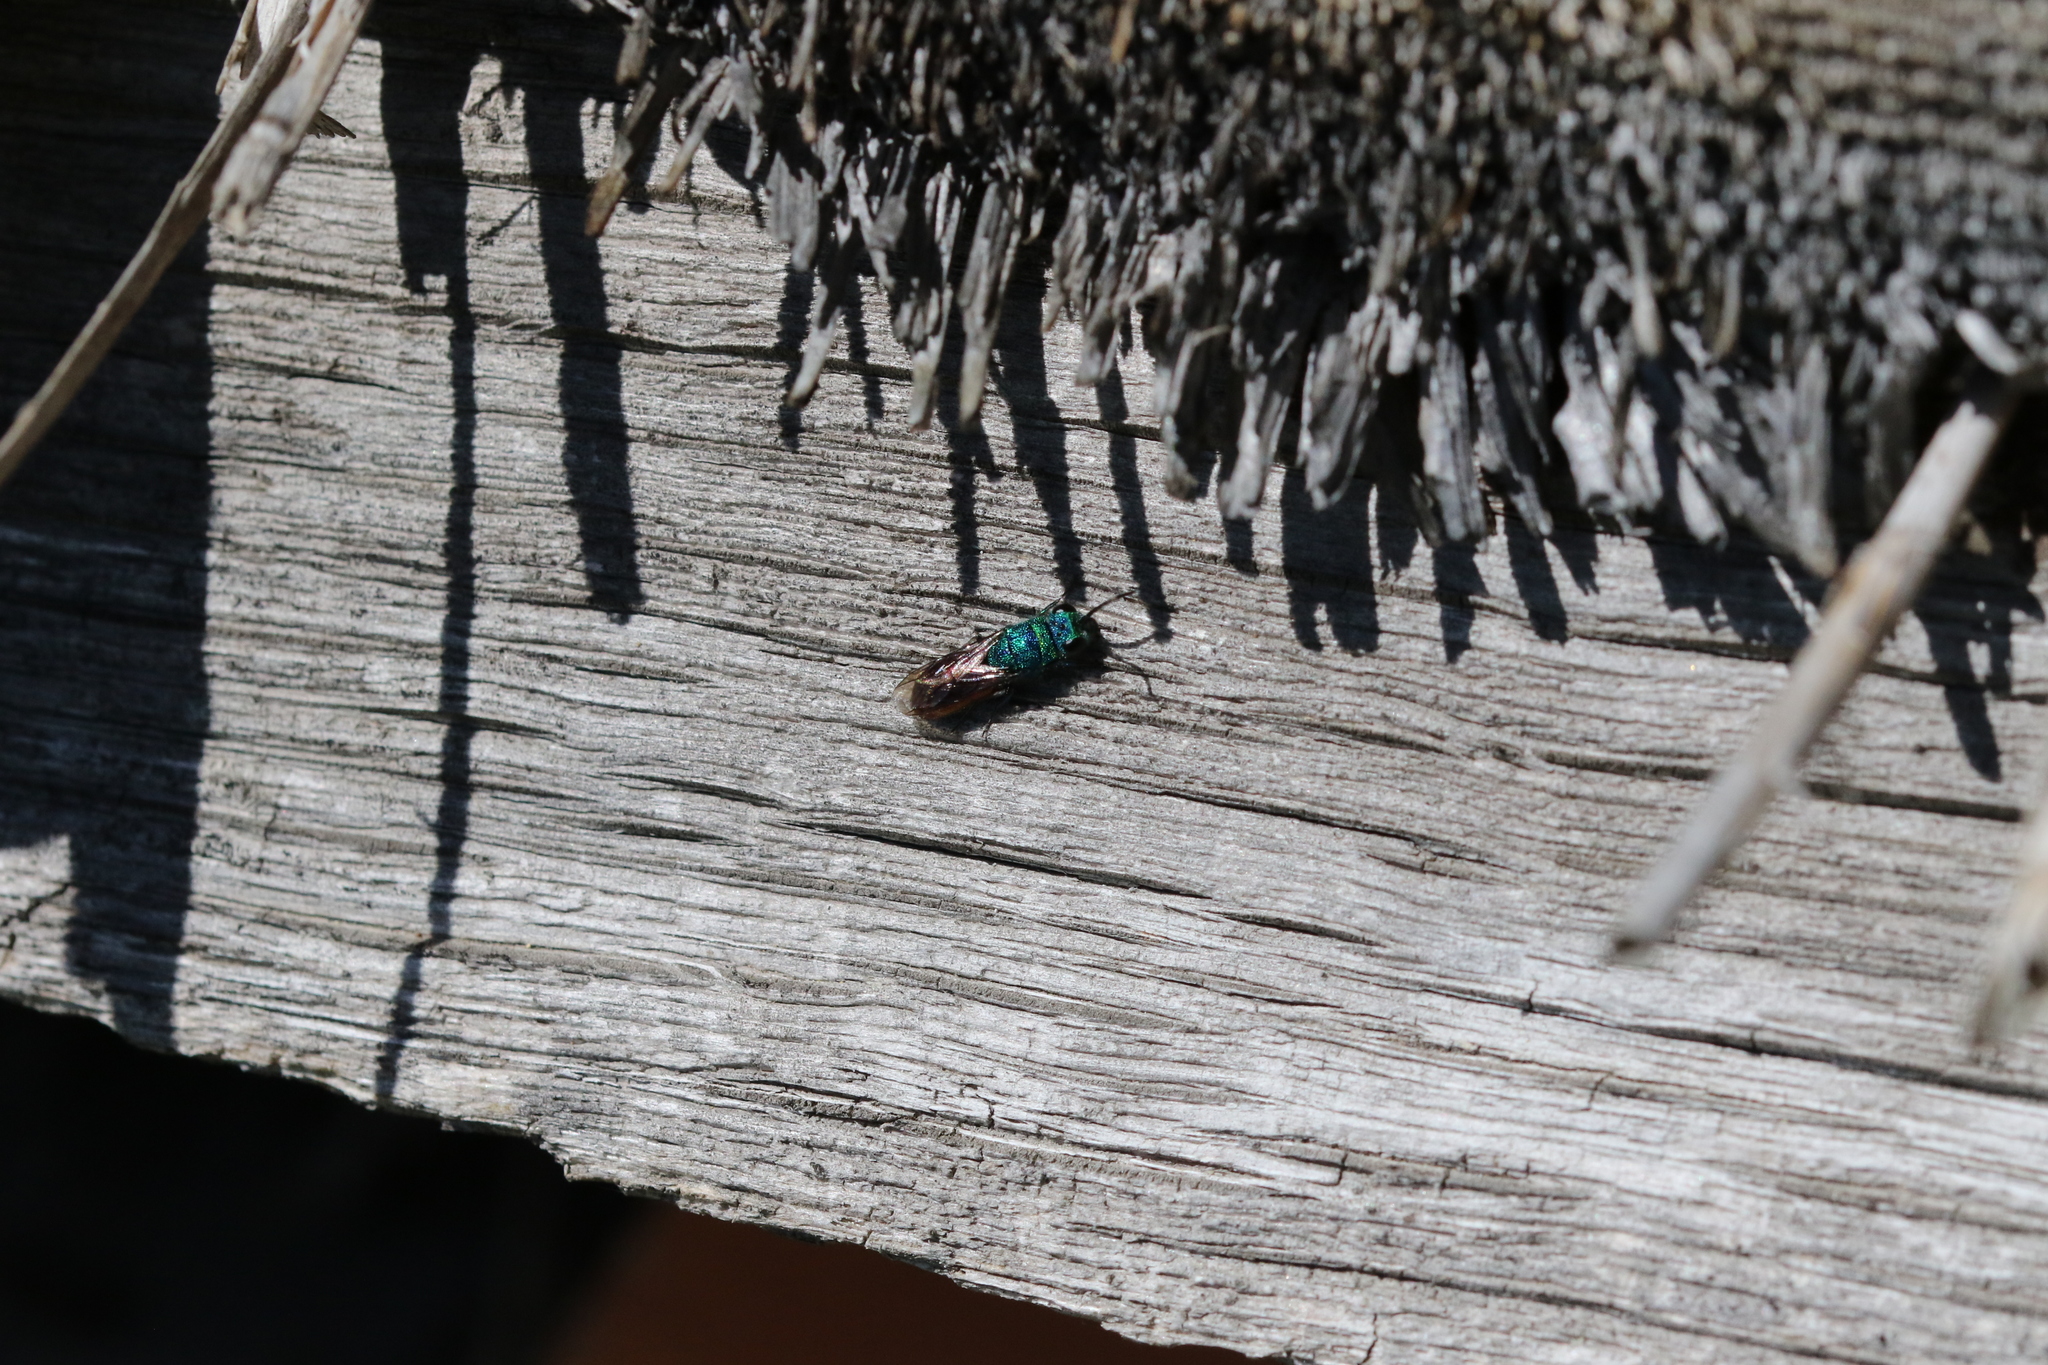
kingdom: Animalia
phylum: Arthropoda
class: Insecta
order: Hymenoptera
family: Chrysididae
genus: Chrysis
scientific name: Chrysis
